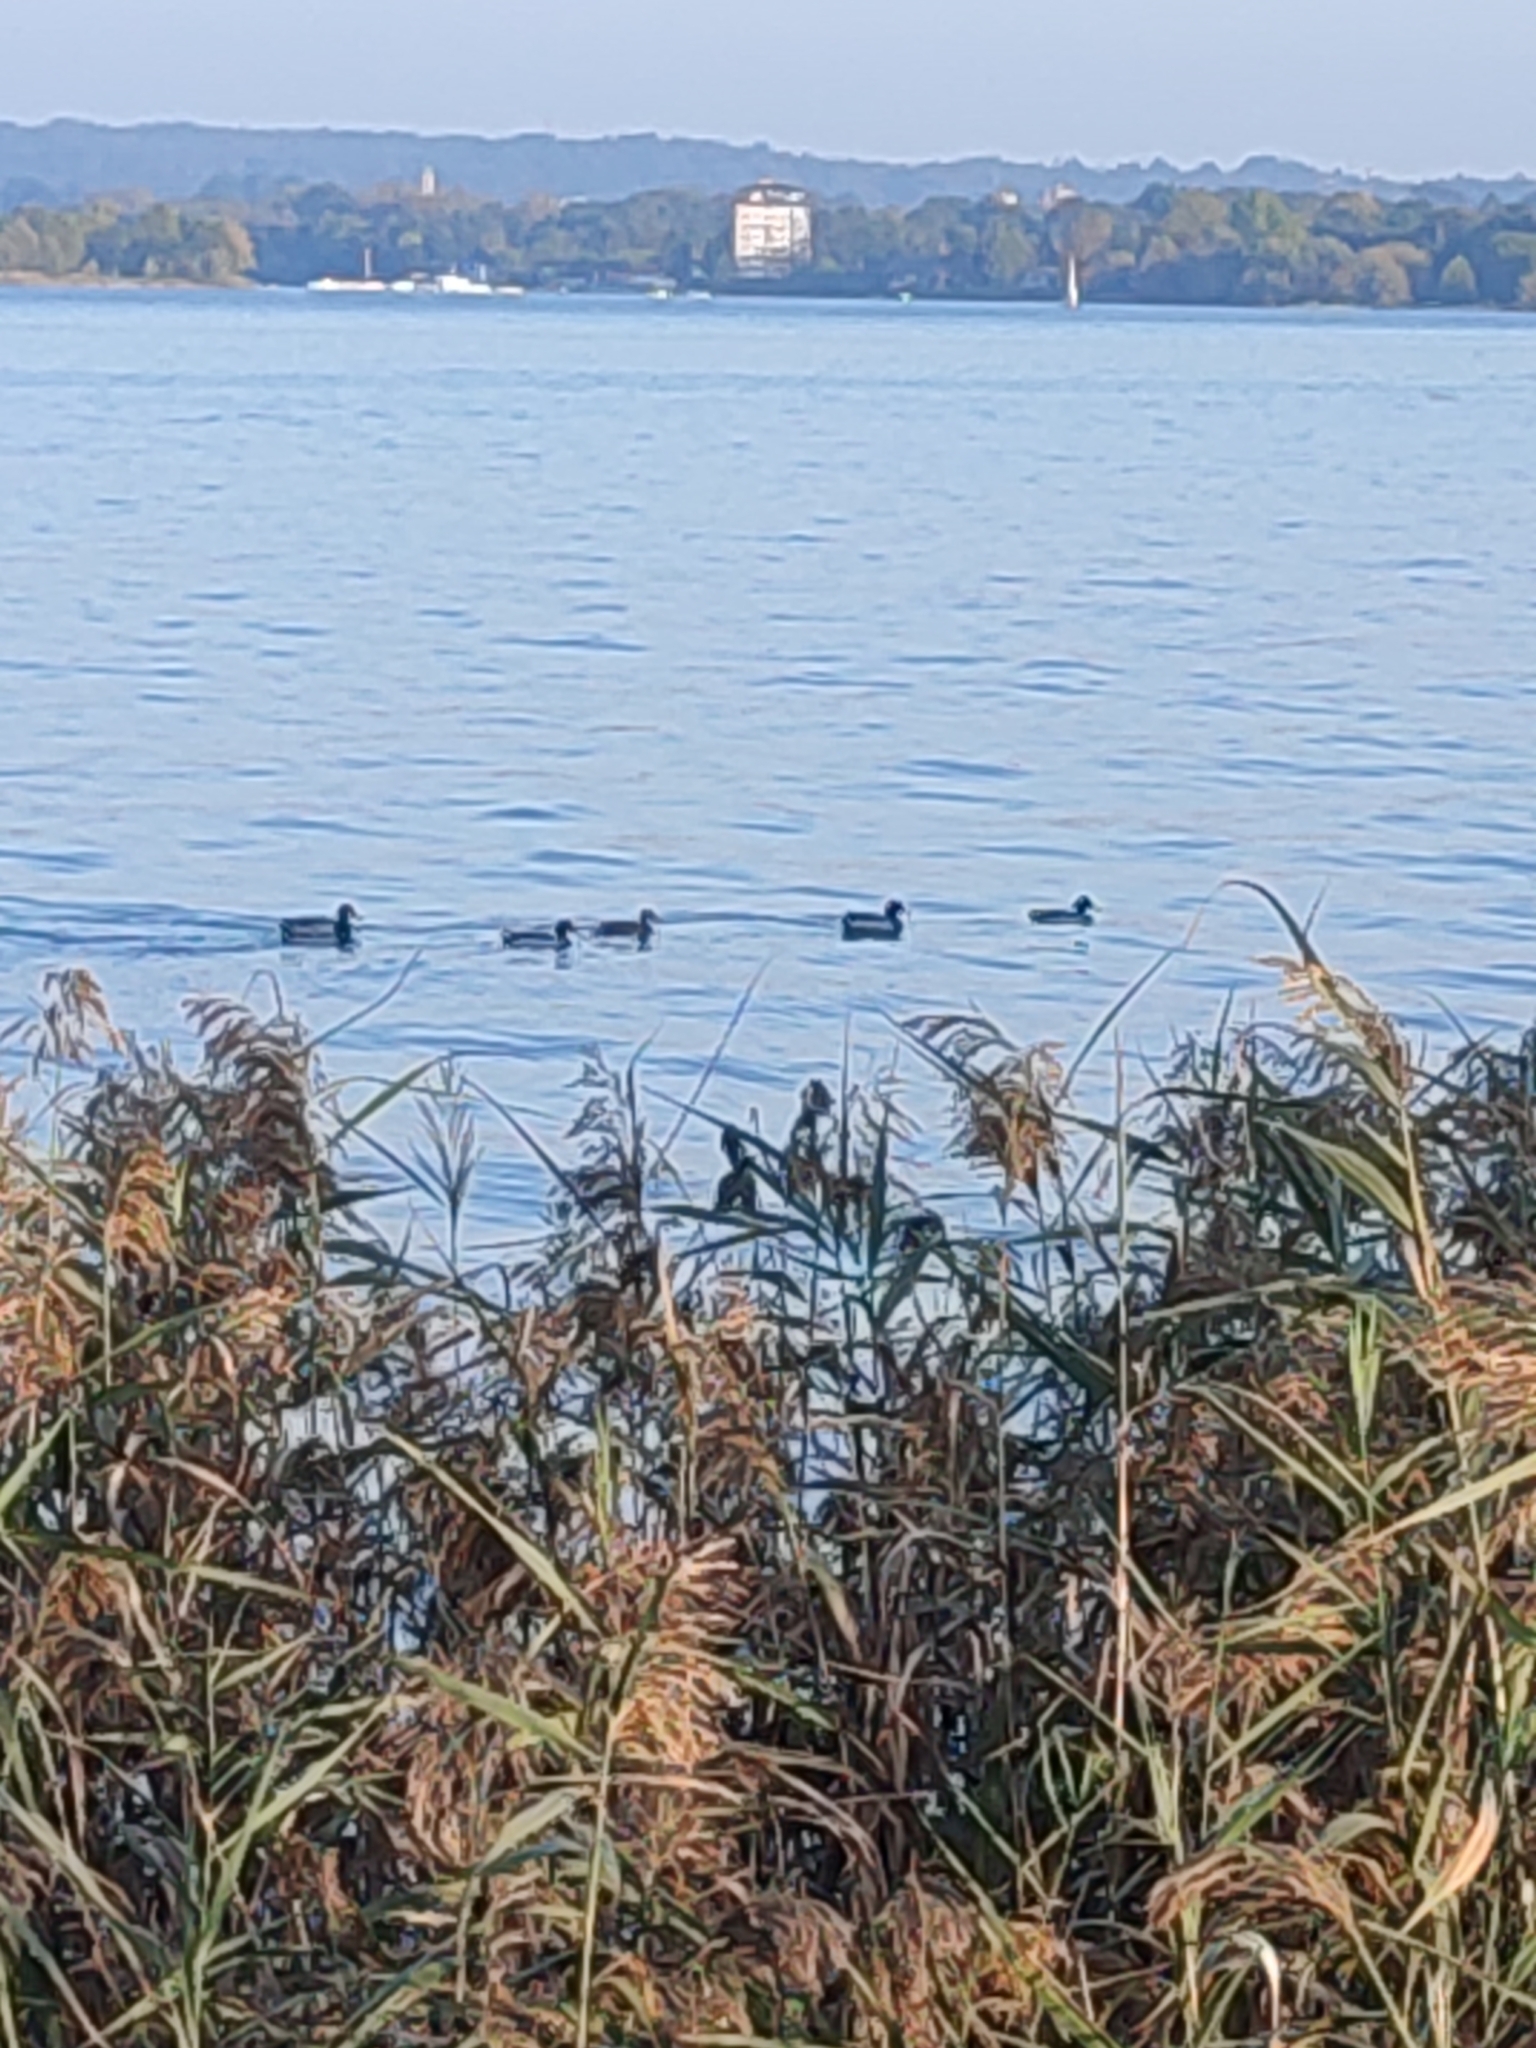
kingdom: Animalia
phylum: Chordata
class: Aves
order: Anseriformes
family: Anatidae
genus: Anas
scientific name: Anas platyrhynchos
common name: Mallard
